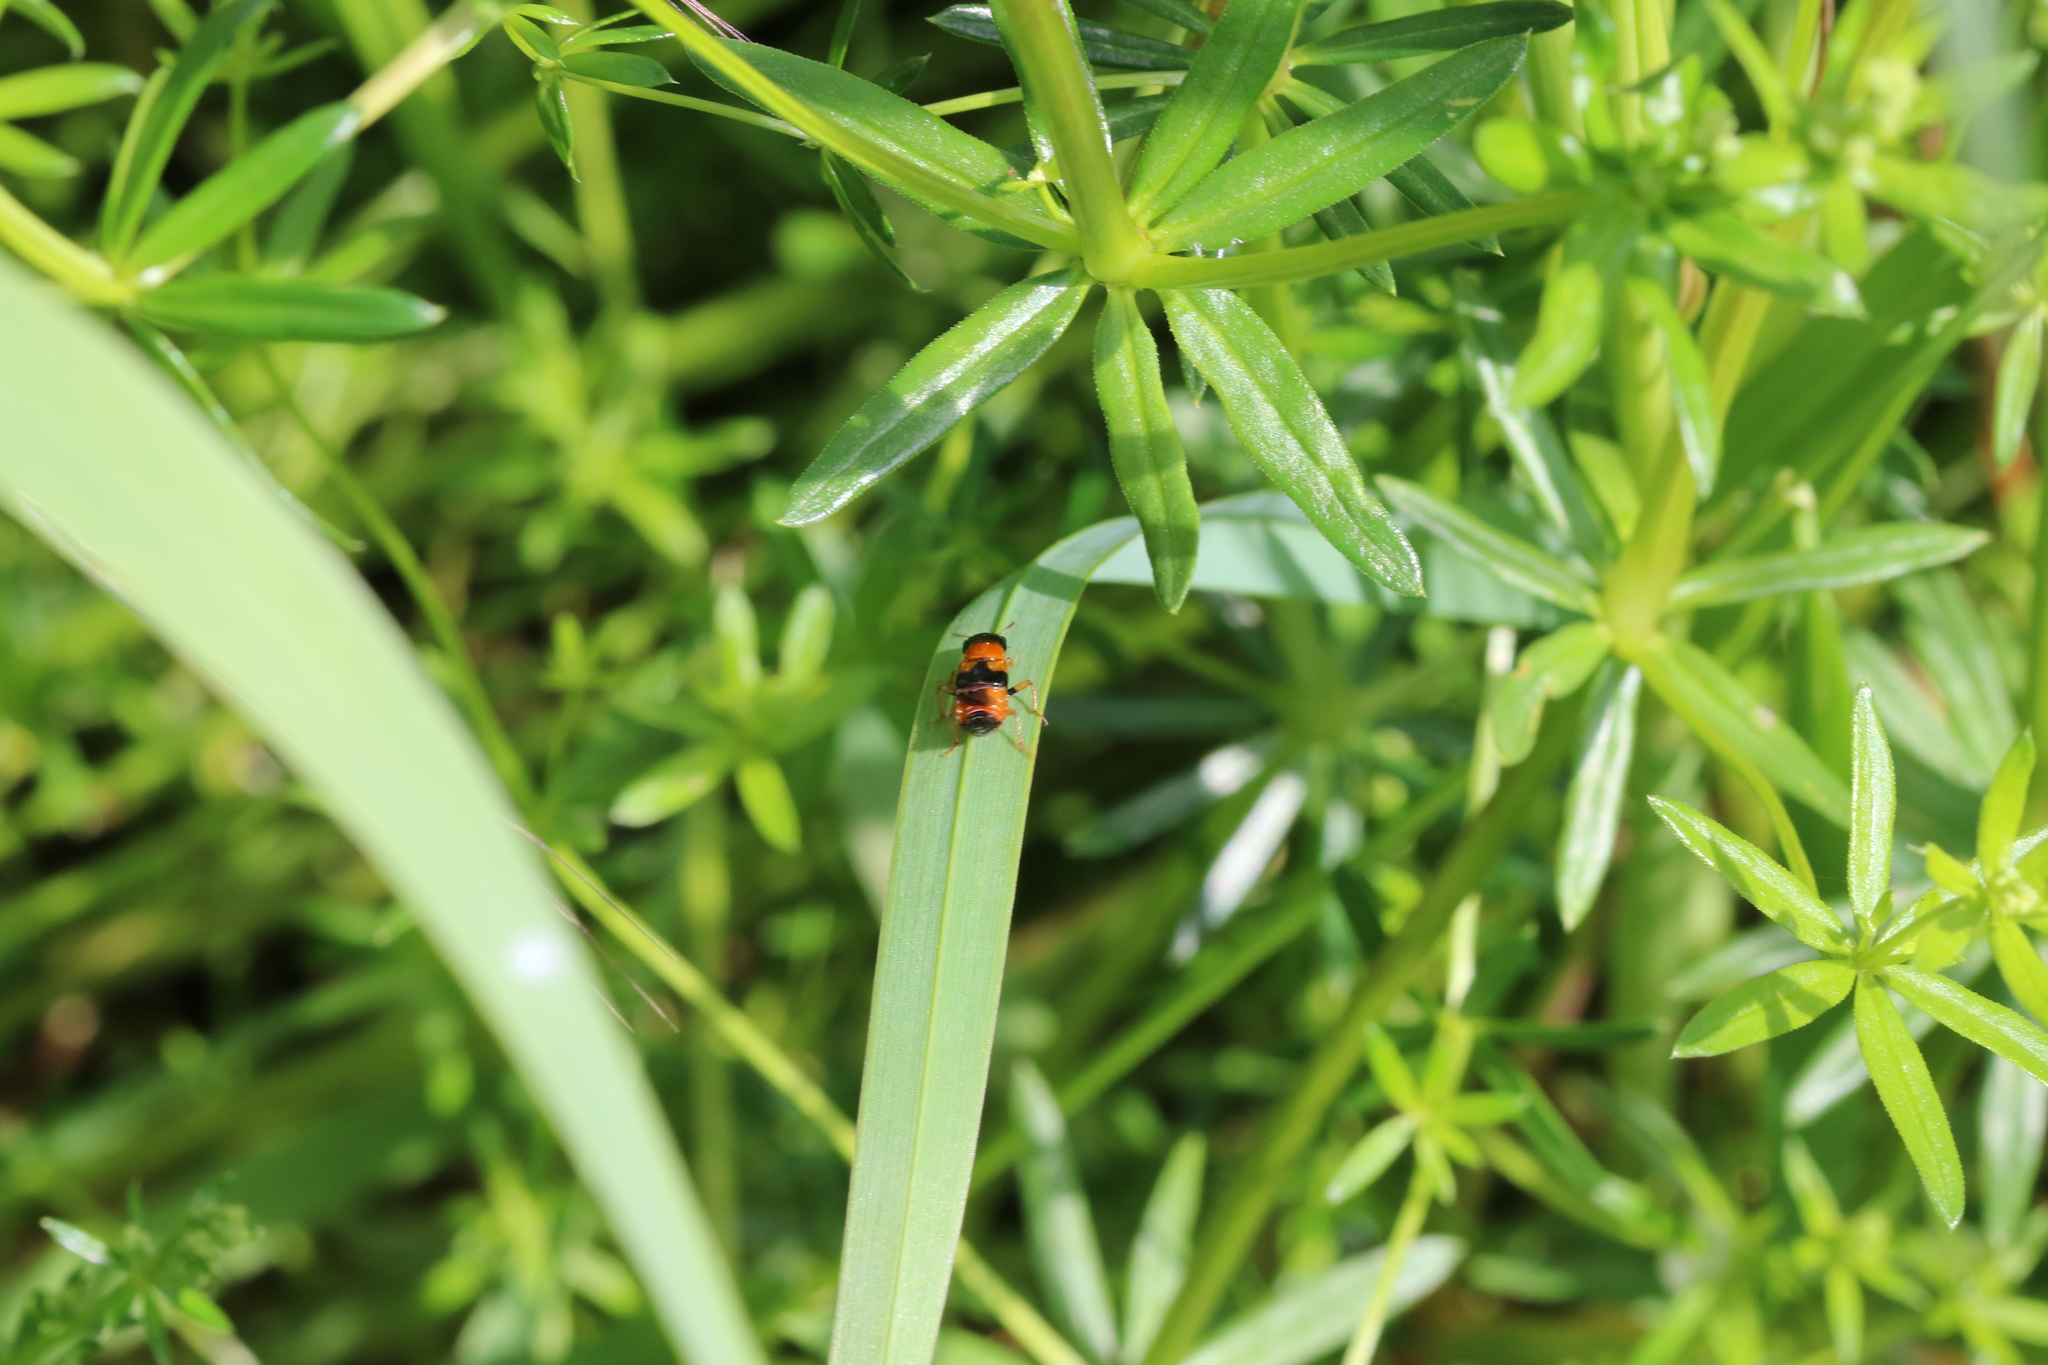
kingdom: Animalia
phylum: Arthropoda
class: Insecta
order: Coleoptera
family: Staphylinidae
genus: Oxyporus
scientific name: Oxyporus rufus
